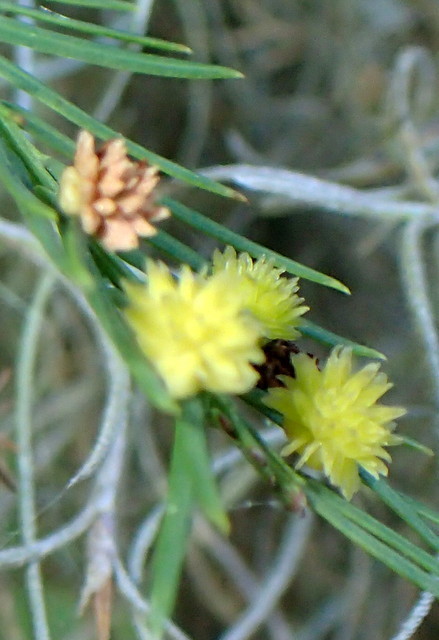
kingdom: Animalia
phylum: Arthropoda
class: Insecta
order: Diptera
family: Cecidomyiidae
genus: Taxodiomyia
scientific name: Taxodiomyia
